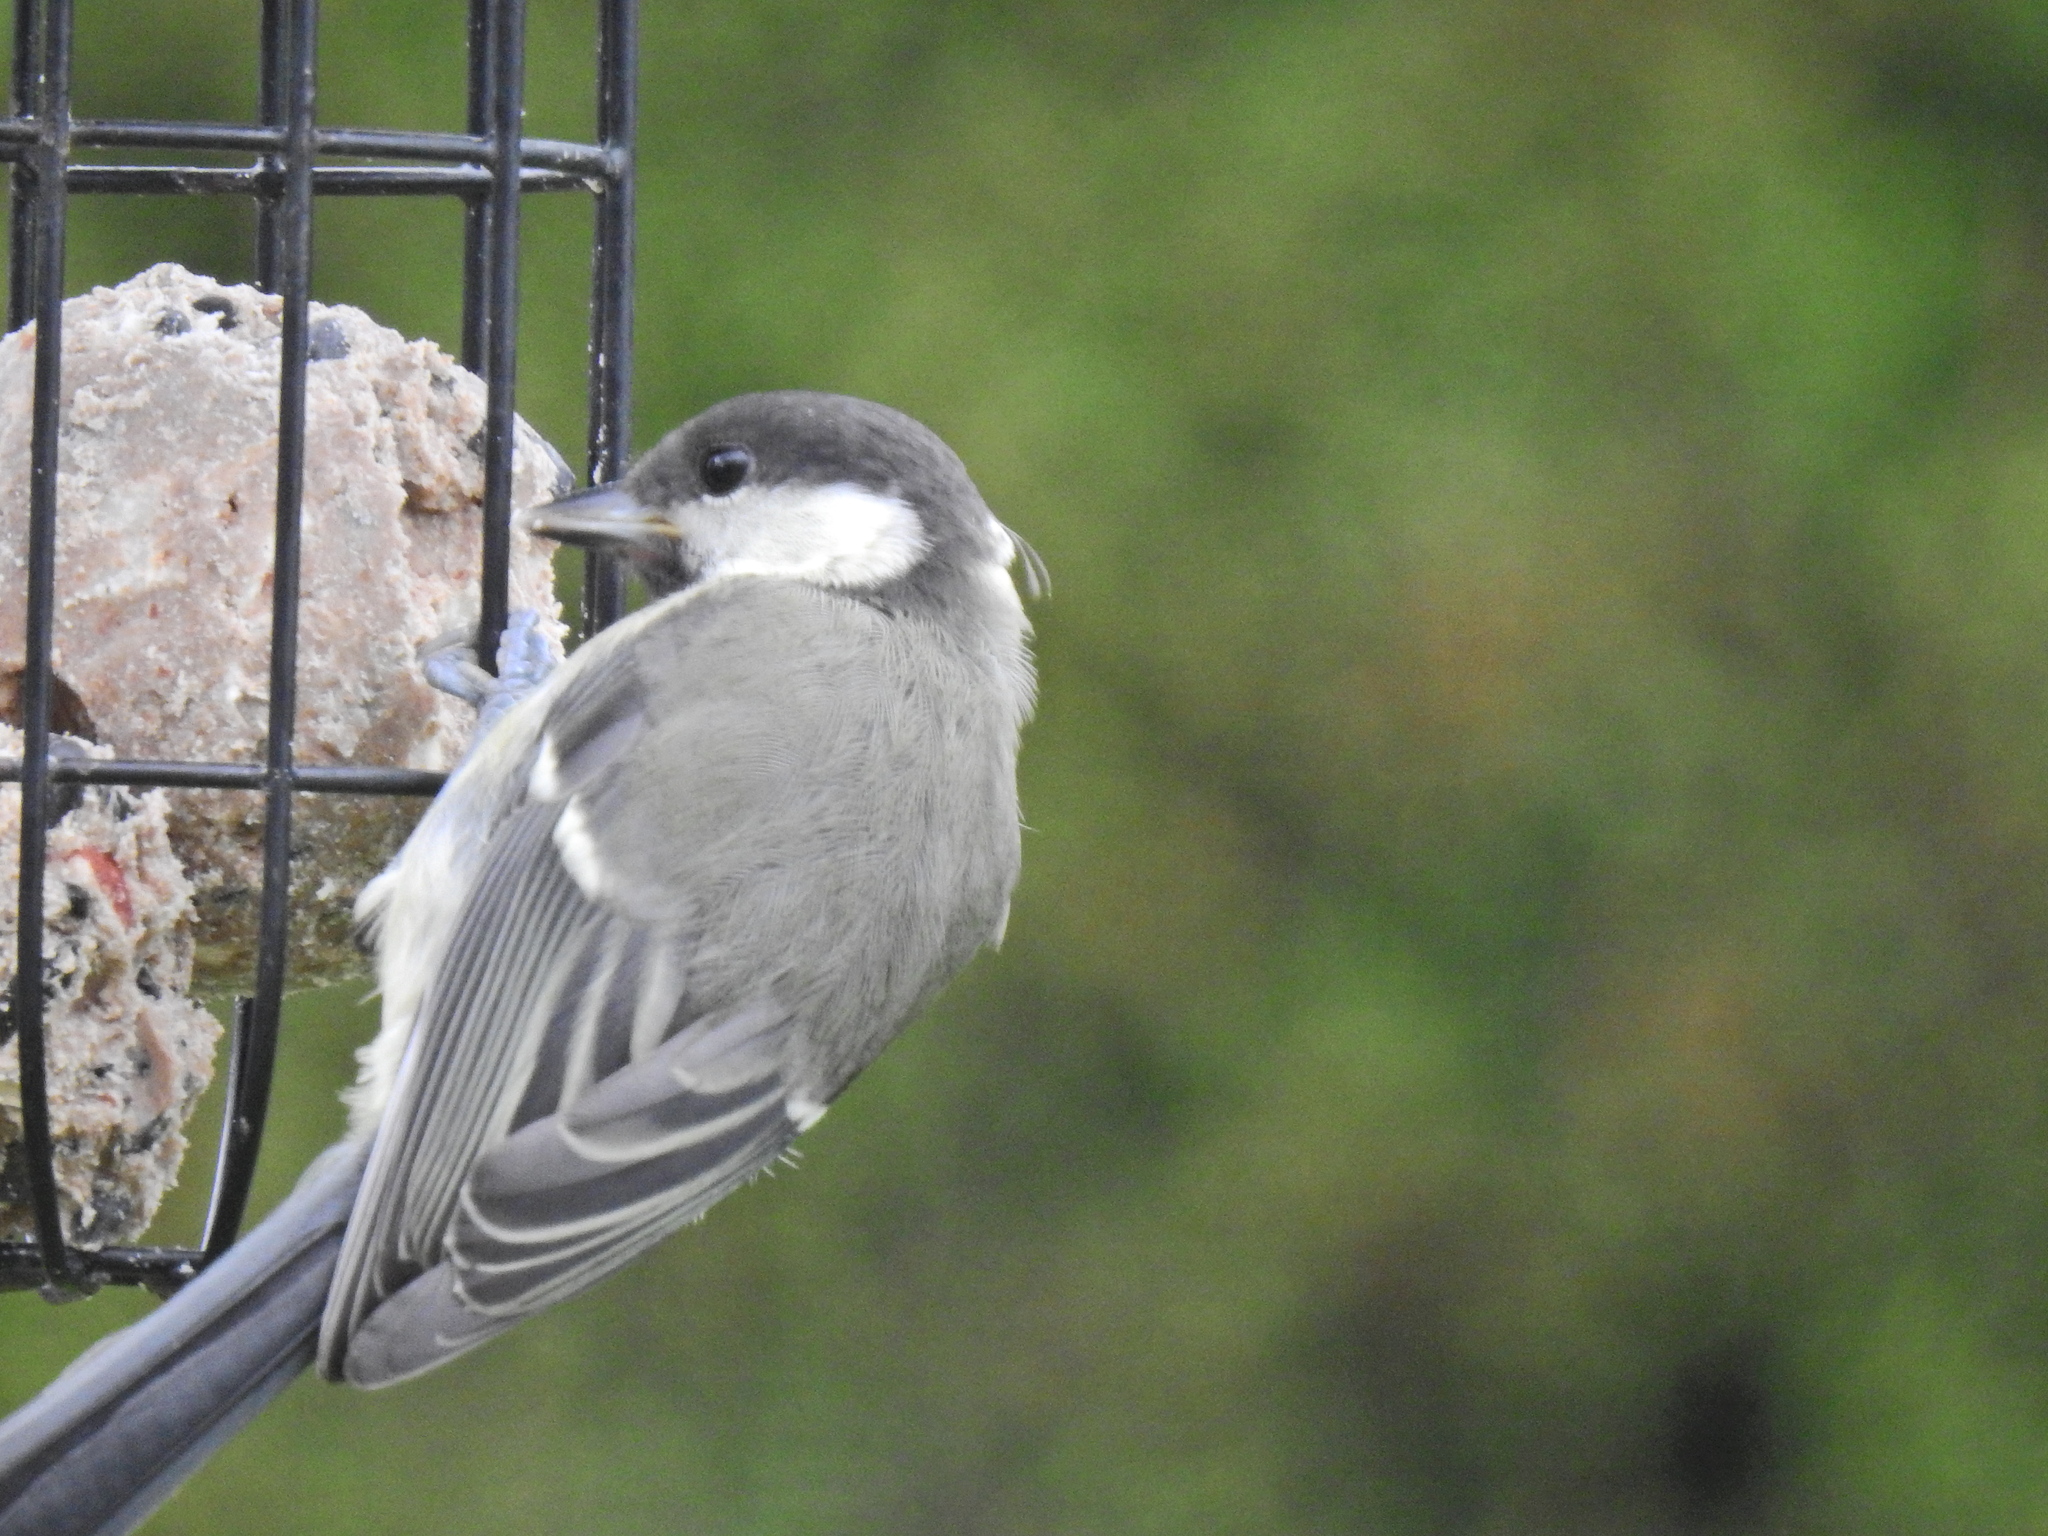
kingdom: Animalia
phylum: Chordata
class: Aves
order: Passeriformes
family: Paridae
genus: Parus
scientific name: Parus major
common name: Great tit
